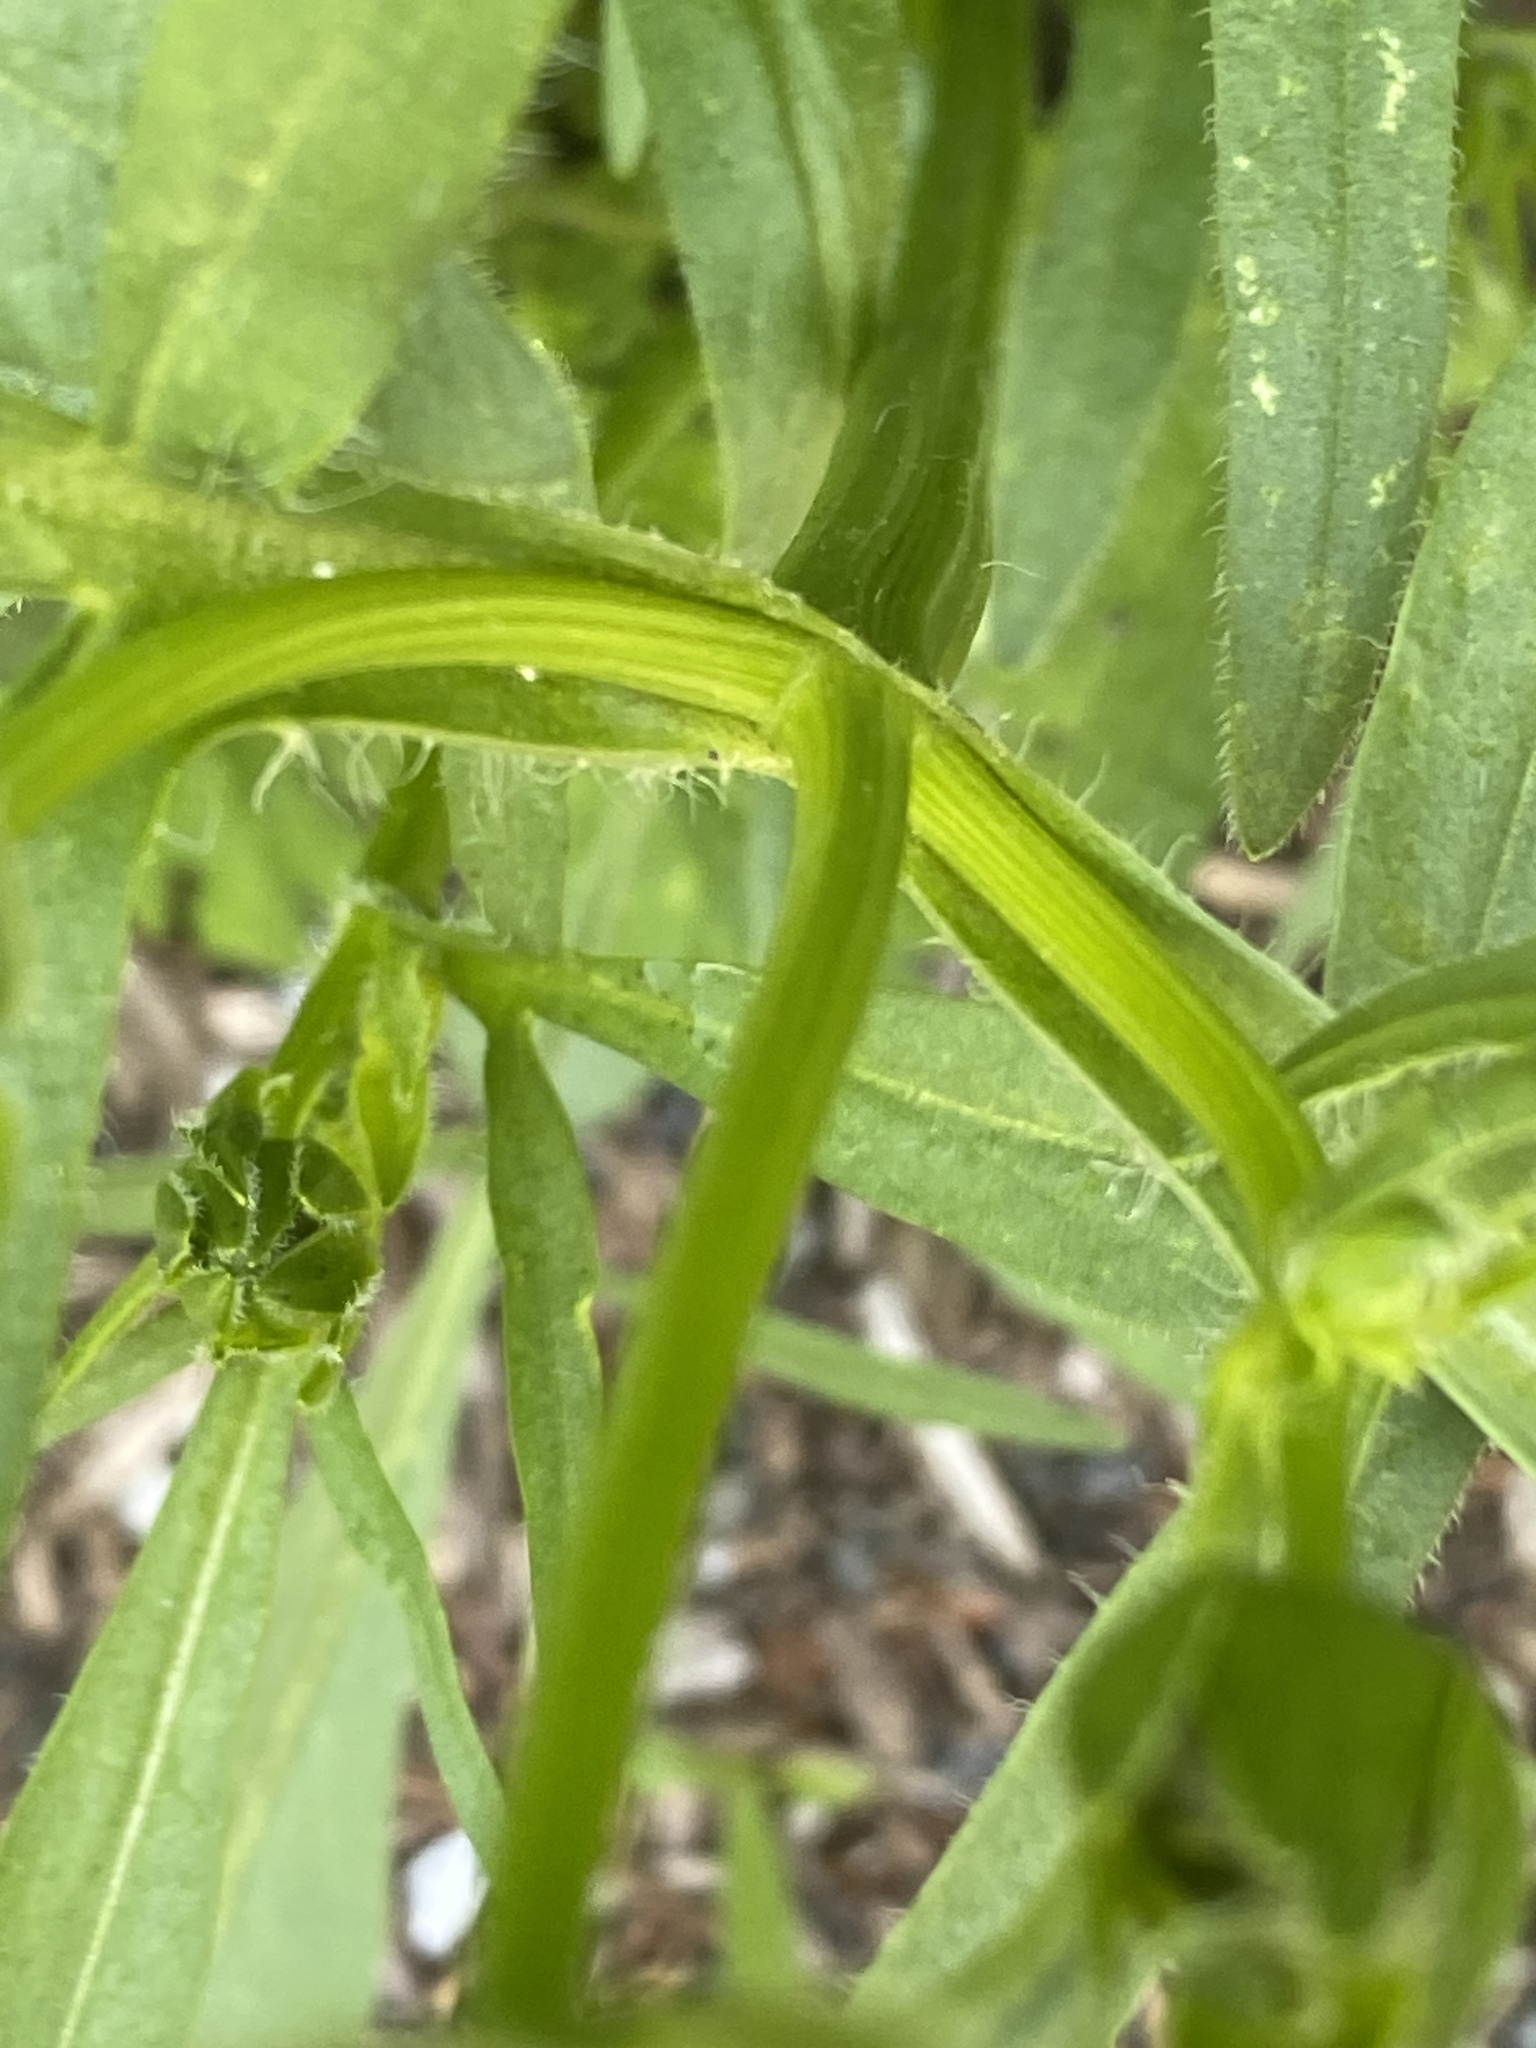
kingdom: Plantae
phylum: Tracheophyta
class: Magnoliopsida
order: Asterales
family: Asteraceae
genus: Coreopsis
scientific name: Coreopsis lanceolata
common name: Garden coreopsis
